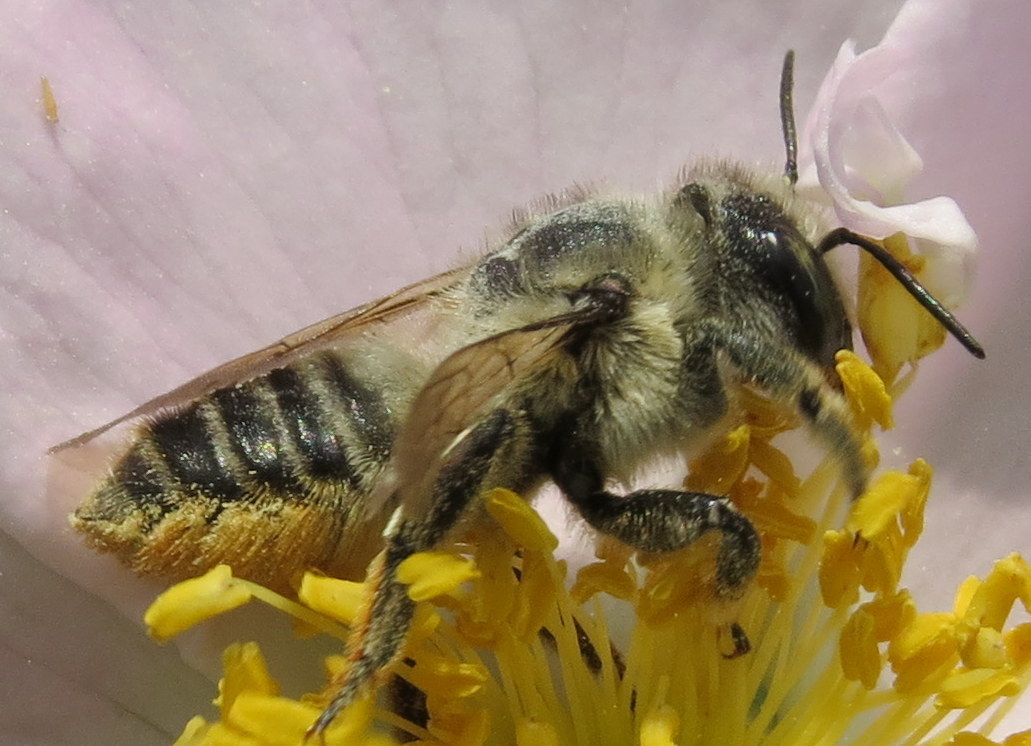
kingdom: Animalia
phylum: Arthropoda
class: Insecta
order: Hymenoptera
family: Megachilidae
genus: Megachile
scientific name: Megachile latimanus
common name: Leafcutting bee
